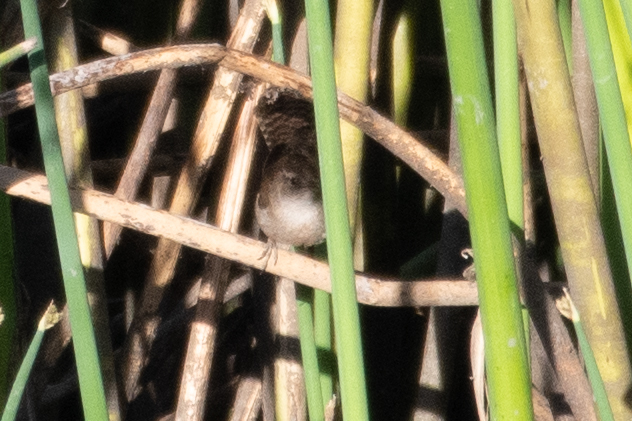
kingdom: Animalia
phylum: Chordata
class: Aves
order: Passeriformes
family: Troglodytidae
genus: Cistothorus
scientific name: Cistothorus palustris
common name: Marsh wren
